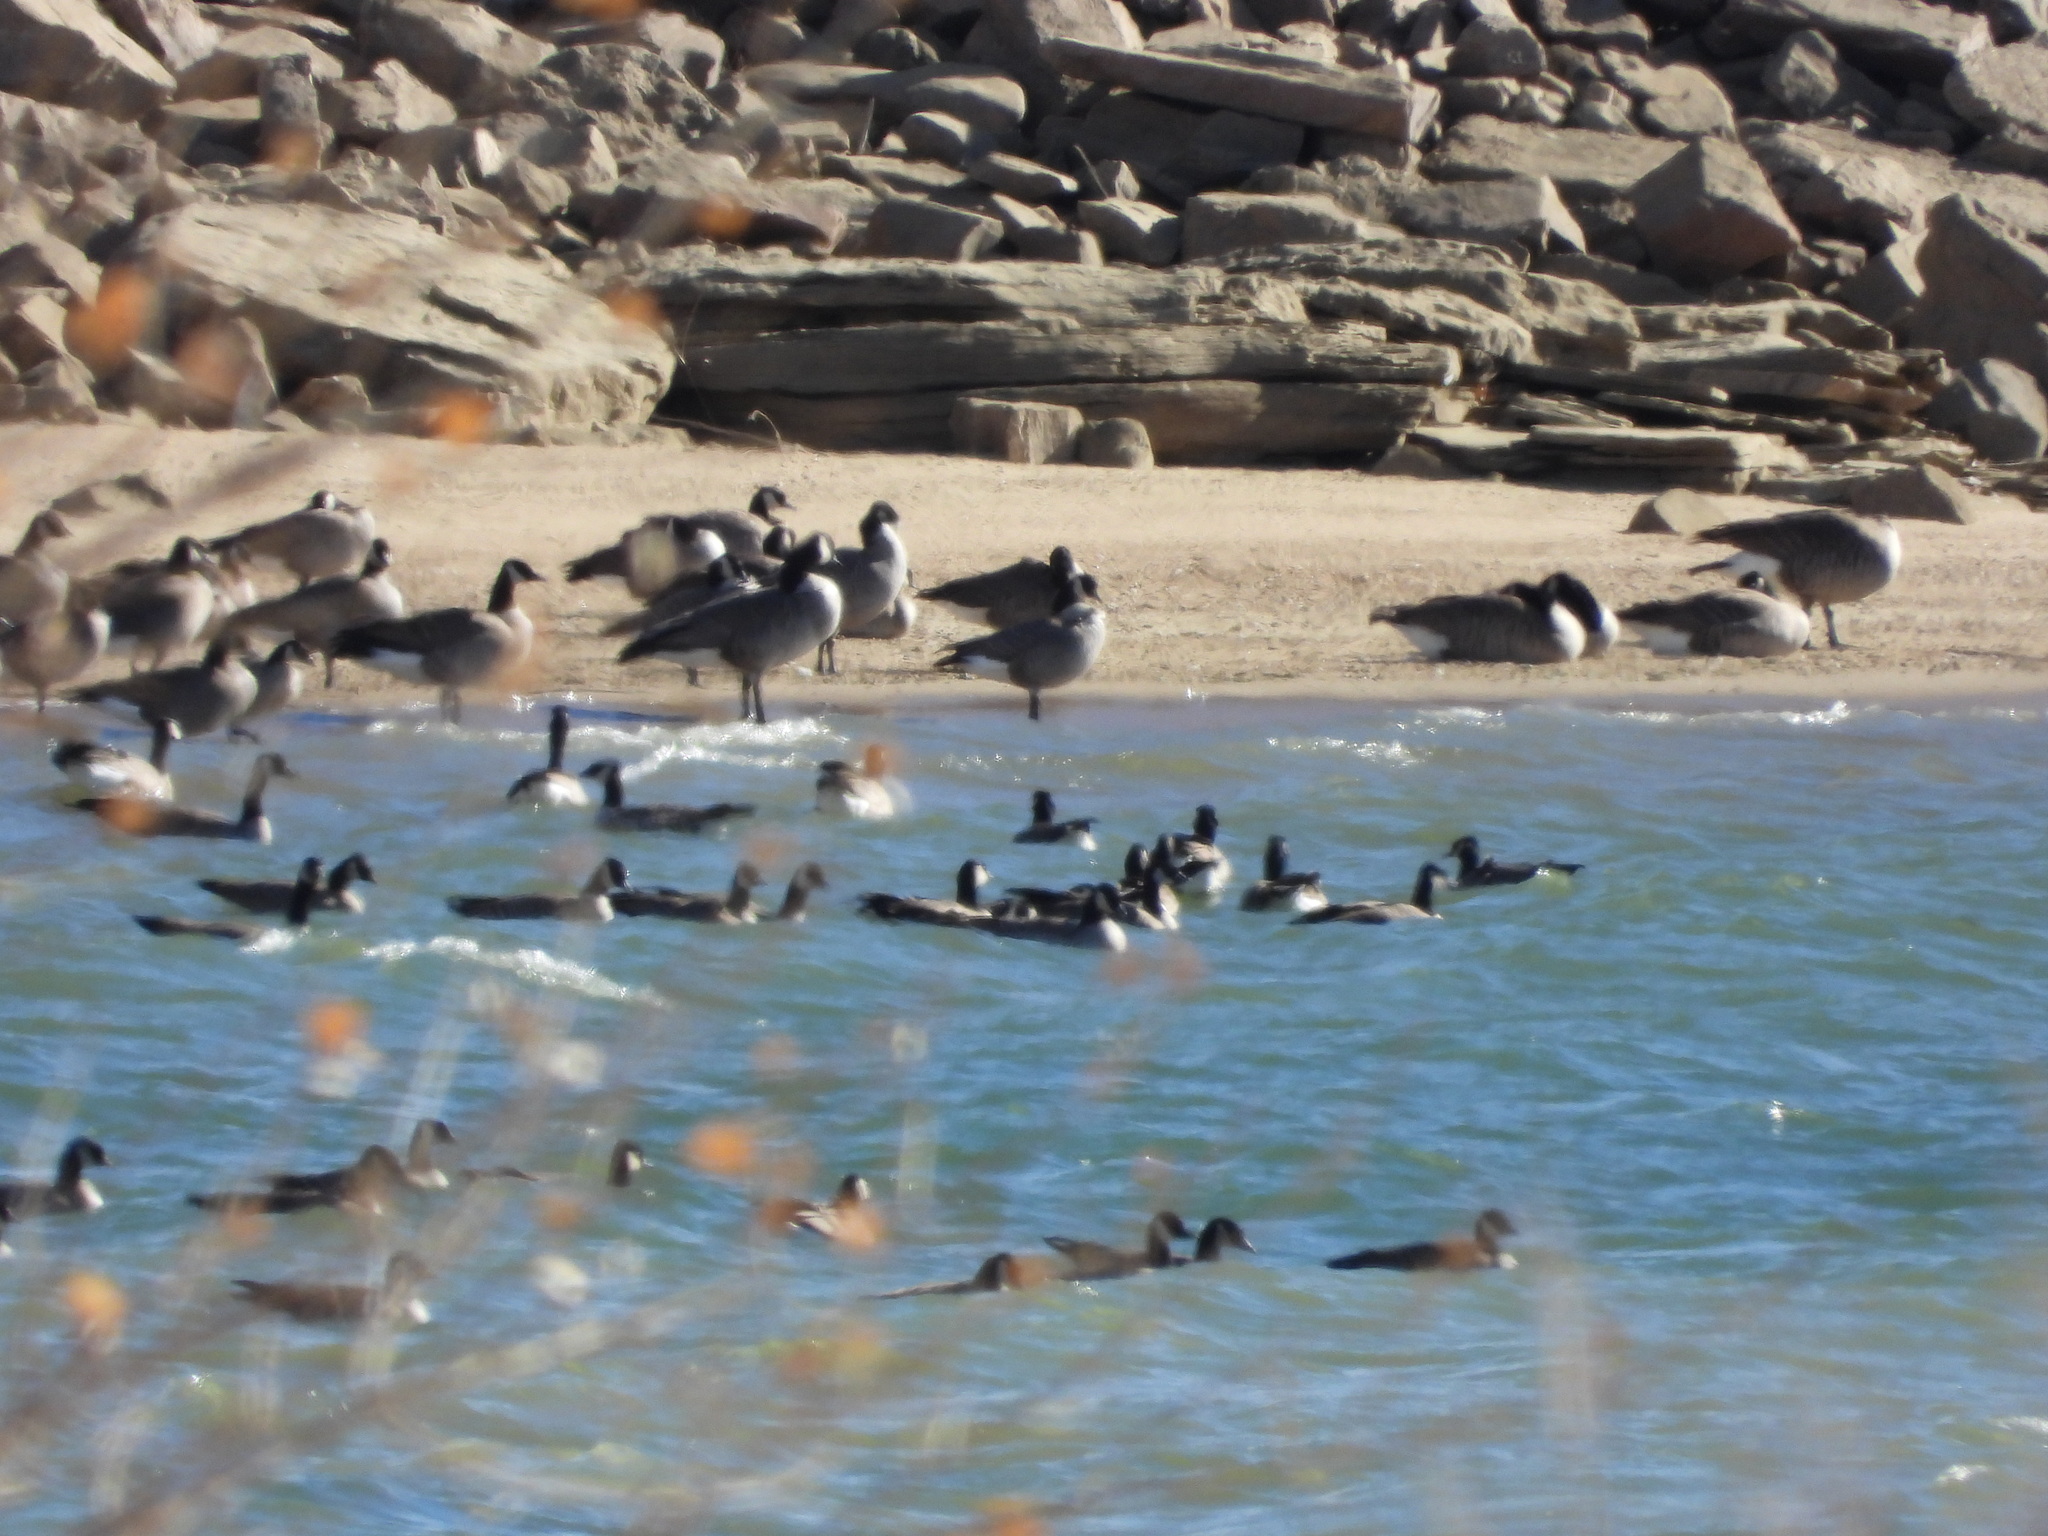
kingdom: Animalia
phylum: Chordata
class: Aves
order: Anseriformes
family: Anatidae
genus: Branta
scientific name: Branta hutchinsii
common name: Cackling goose
